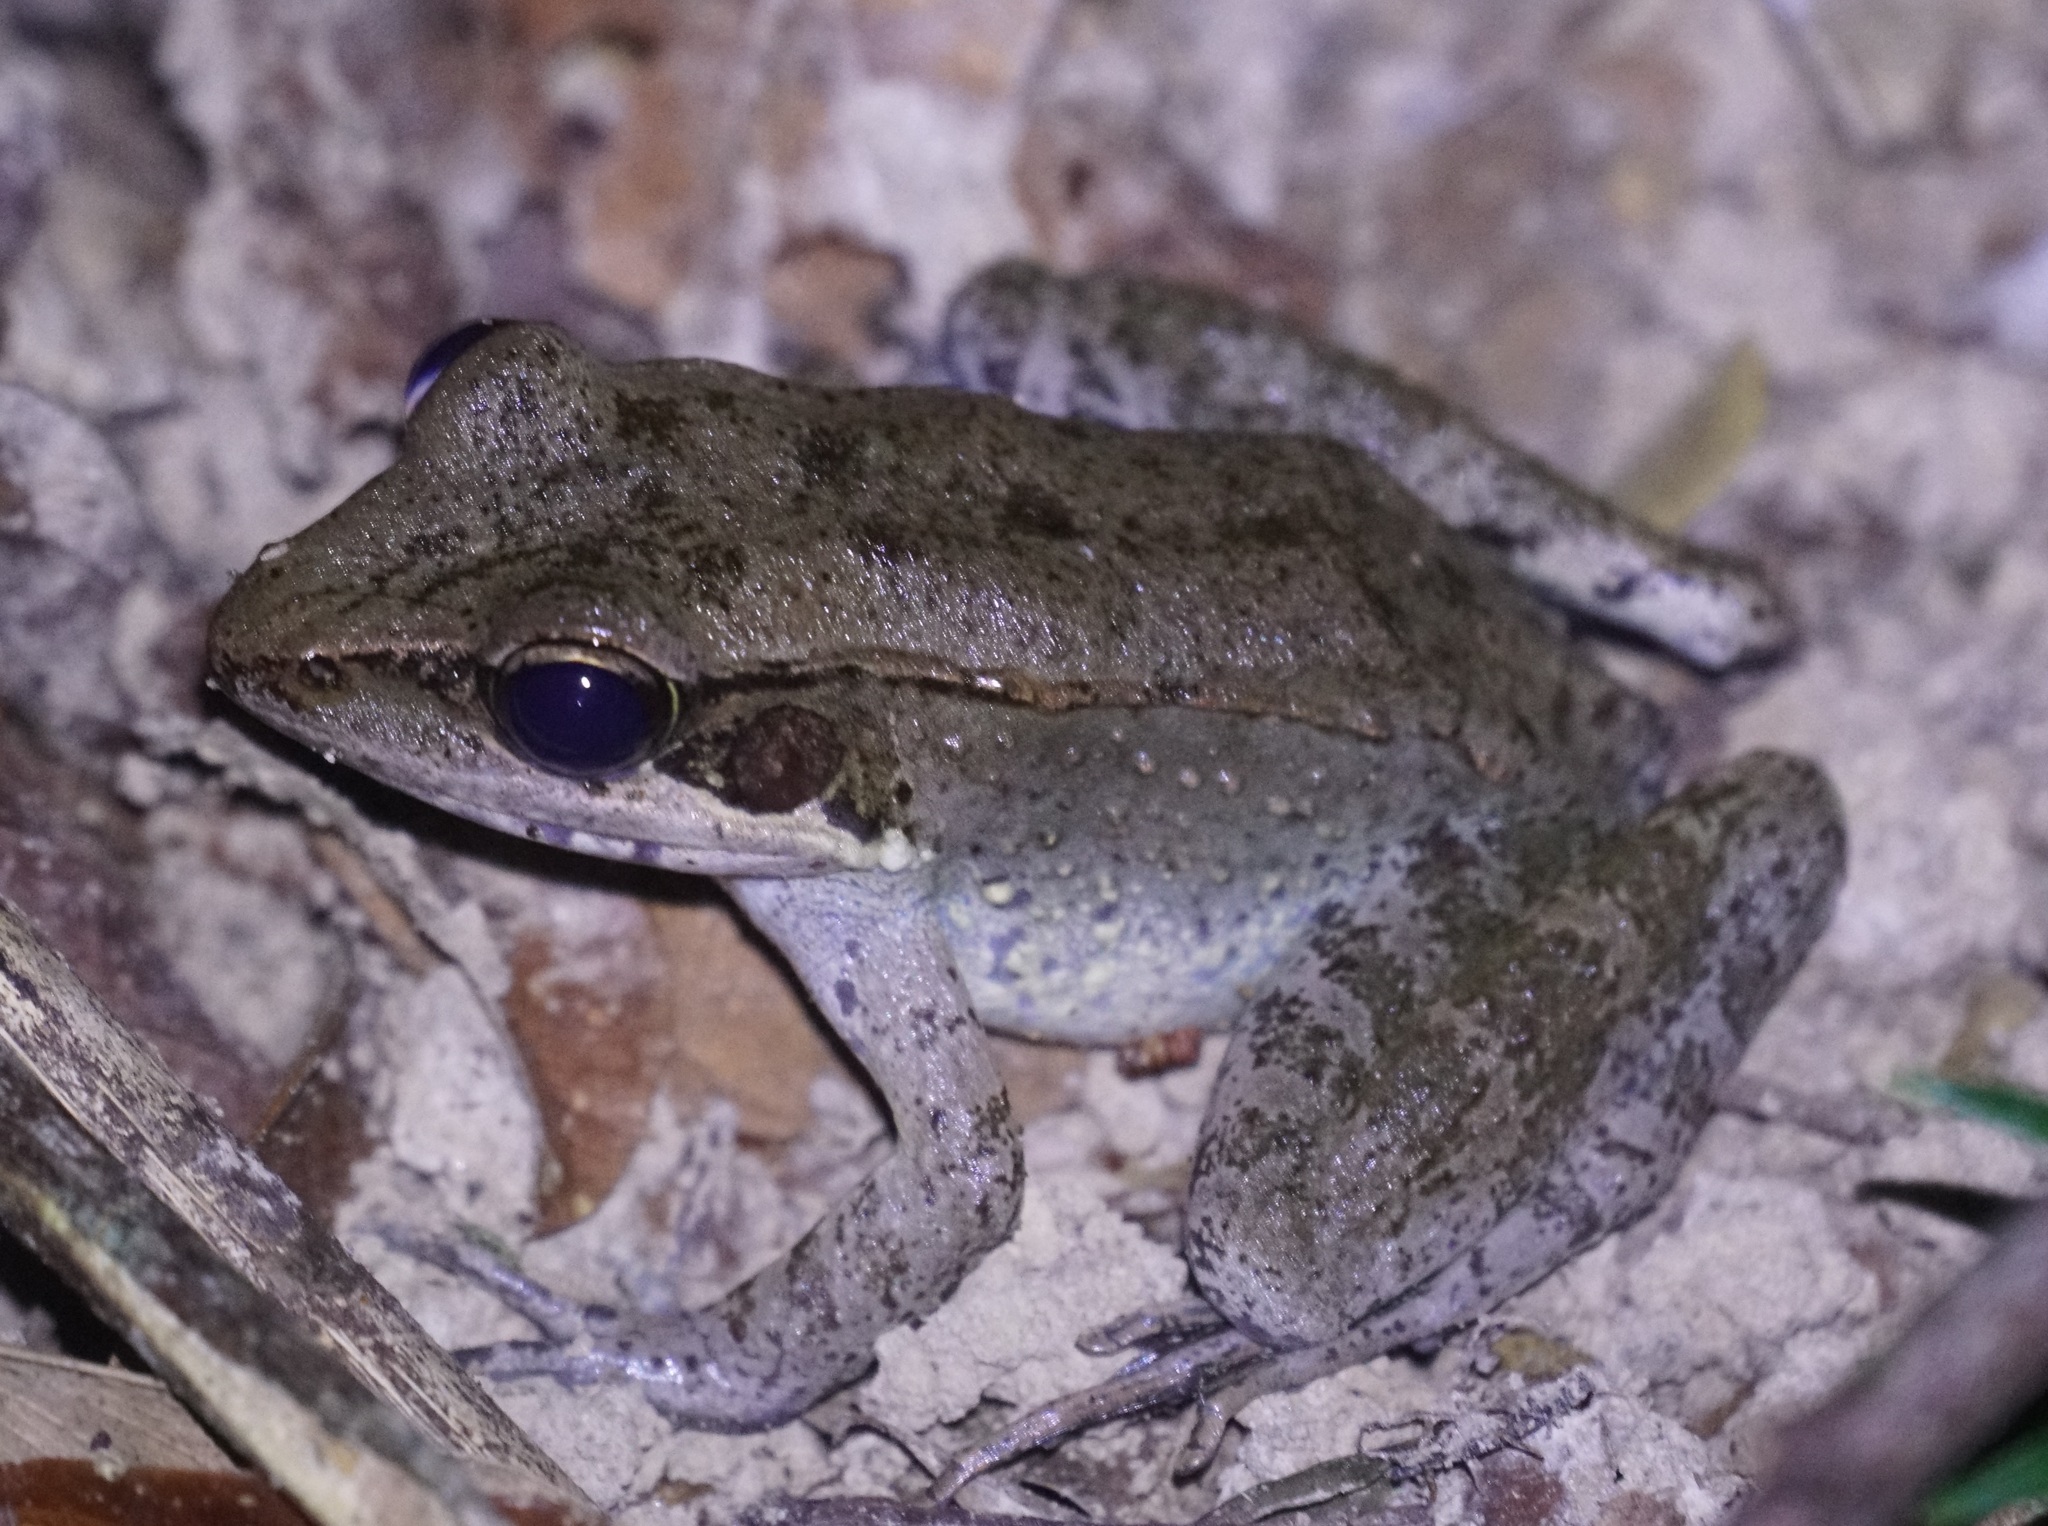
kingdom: Animalia
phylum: Chordata
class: Amphibia
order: Anura
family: Ranidae
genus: Papurana
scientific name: Papurana daemeli
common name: Arhem rana
